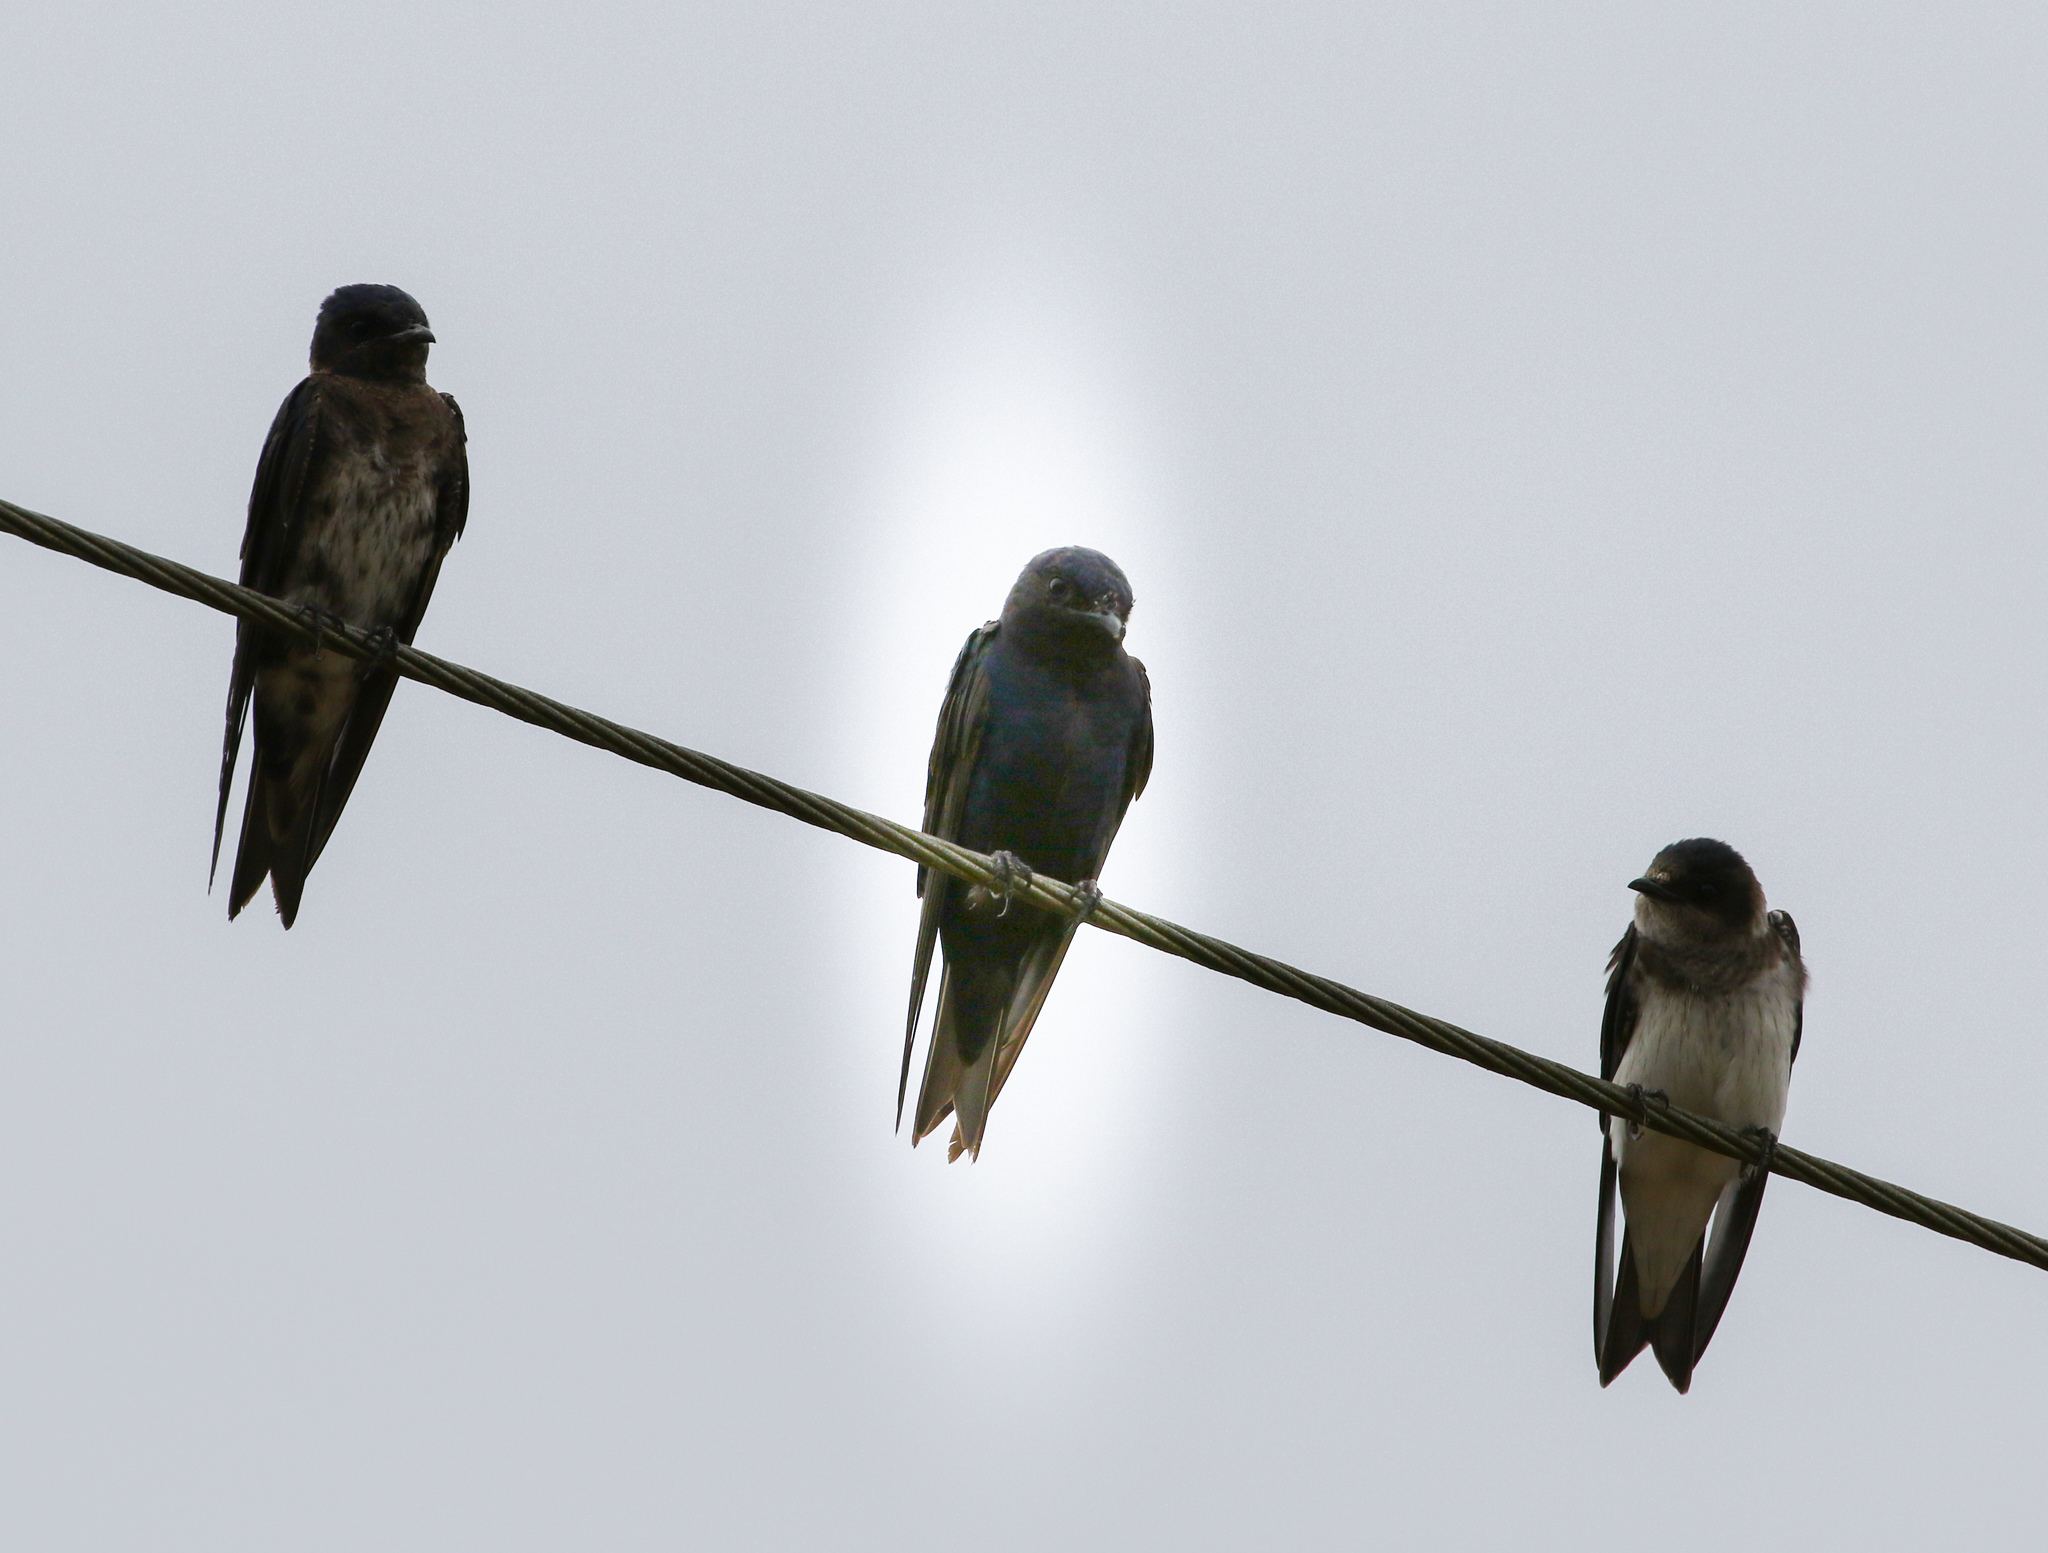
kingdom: Animalia
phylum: Chordata
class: Aves
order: Passeriformes
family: Hirundinidae
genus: Progne
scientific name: Progne subis
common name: Purple martin
